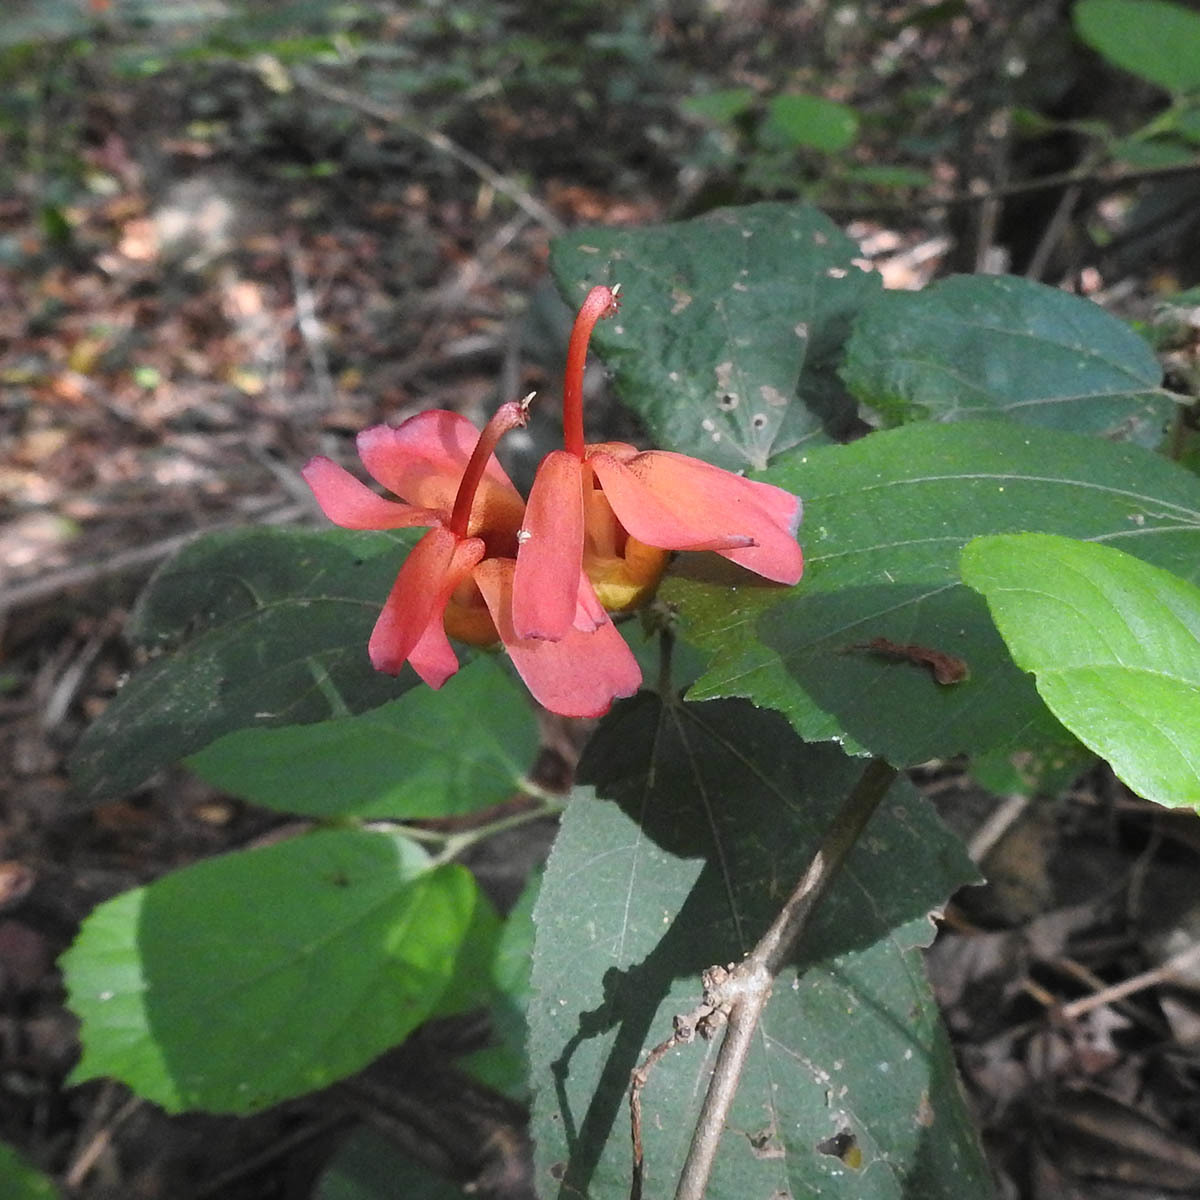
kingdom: Plantae
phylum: Tracheophyta
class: Magnoliopsida
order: Malvales
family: Malvaceae
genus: Helicteres
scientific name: Helicteres isora
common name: East indian screwtree
